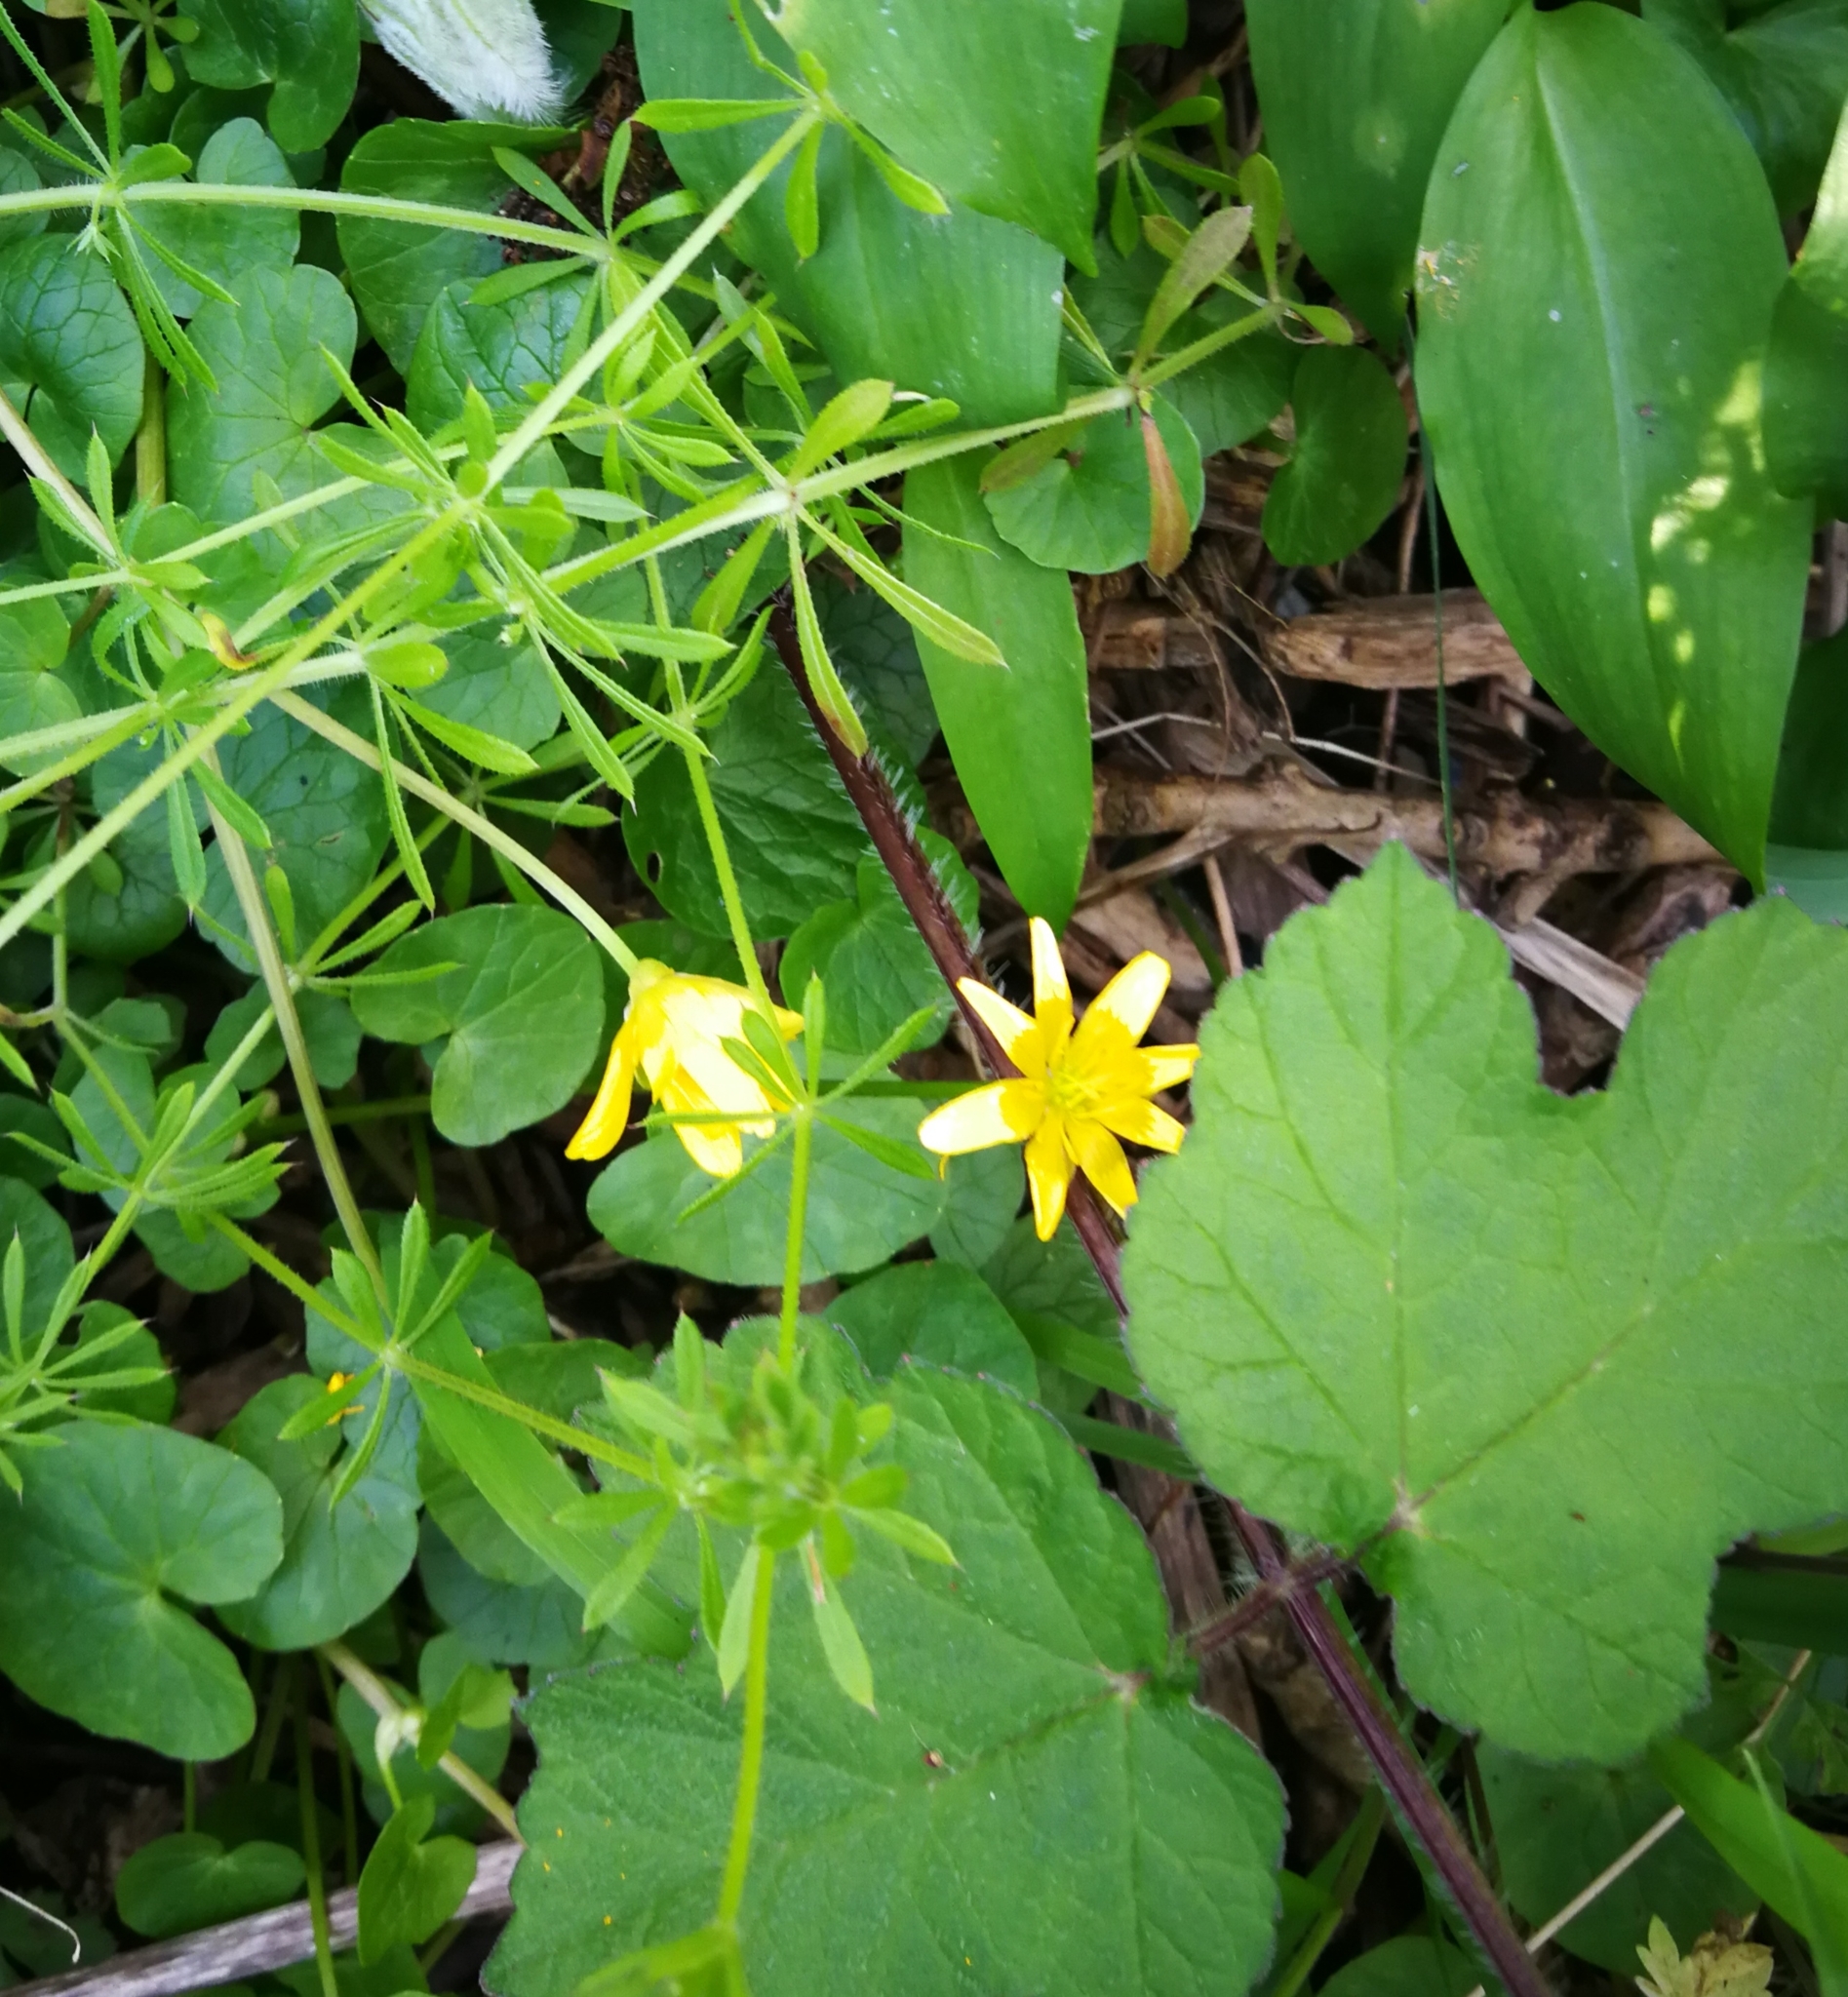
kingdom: Plantae
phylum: Tracheophyta
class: Magnoliopsida
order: Ranunculales
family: Ranunculaceae
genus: Ficaria
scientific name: Ficaria verna
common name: Lesser celandine
